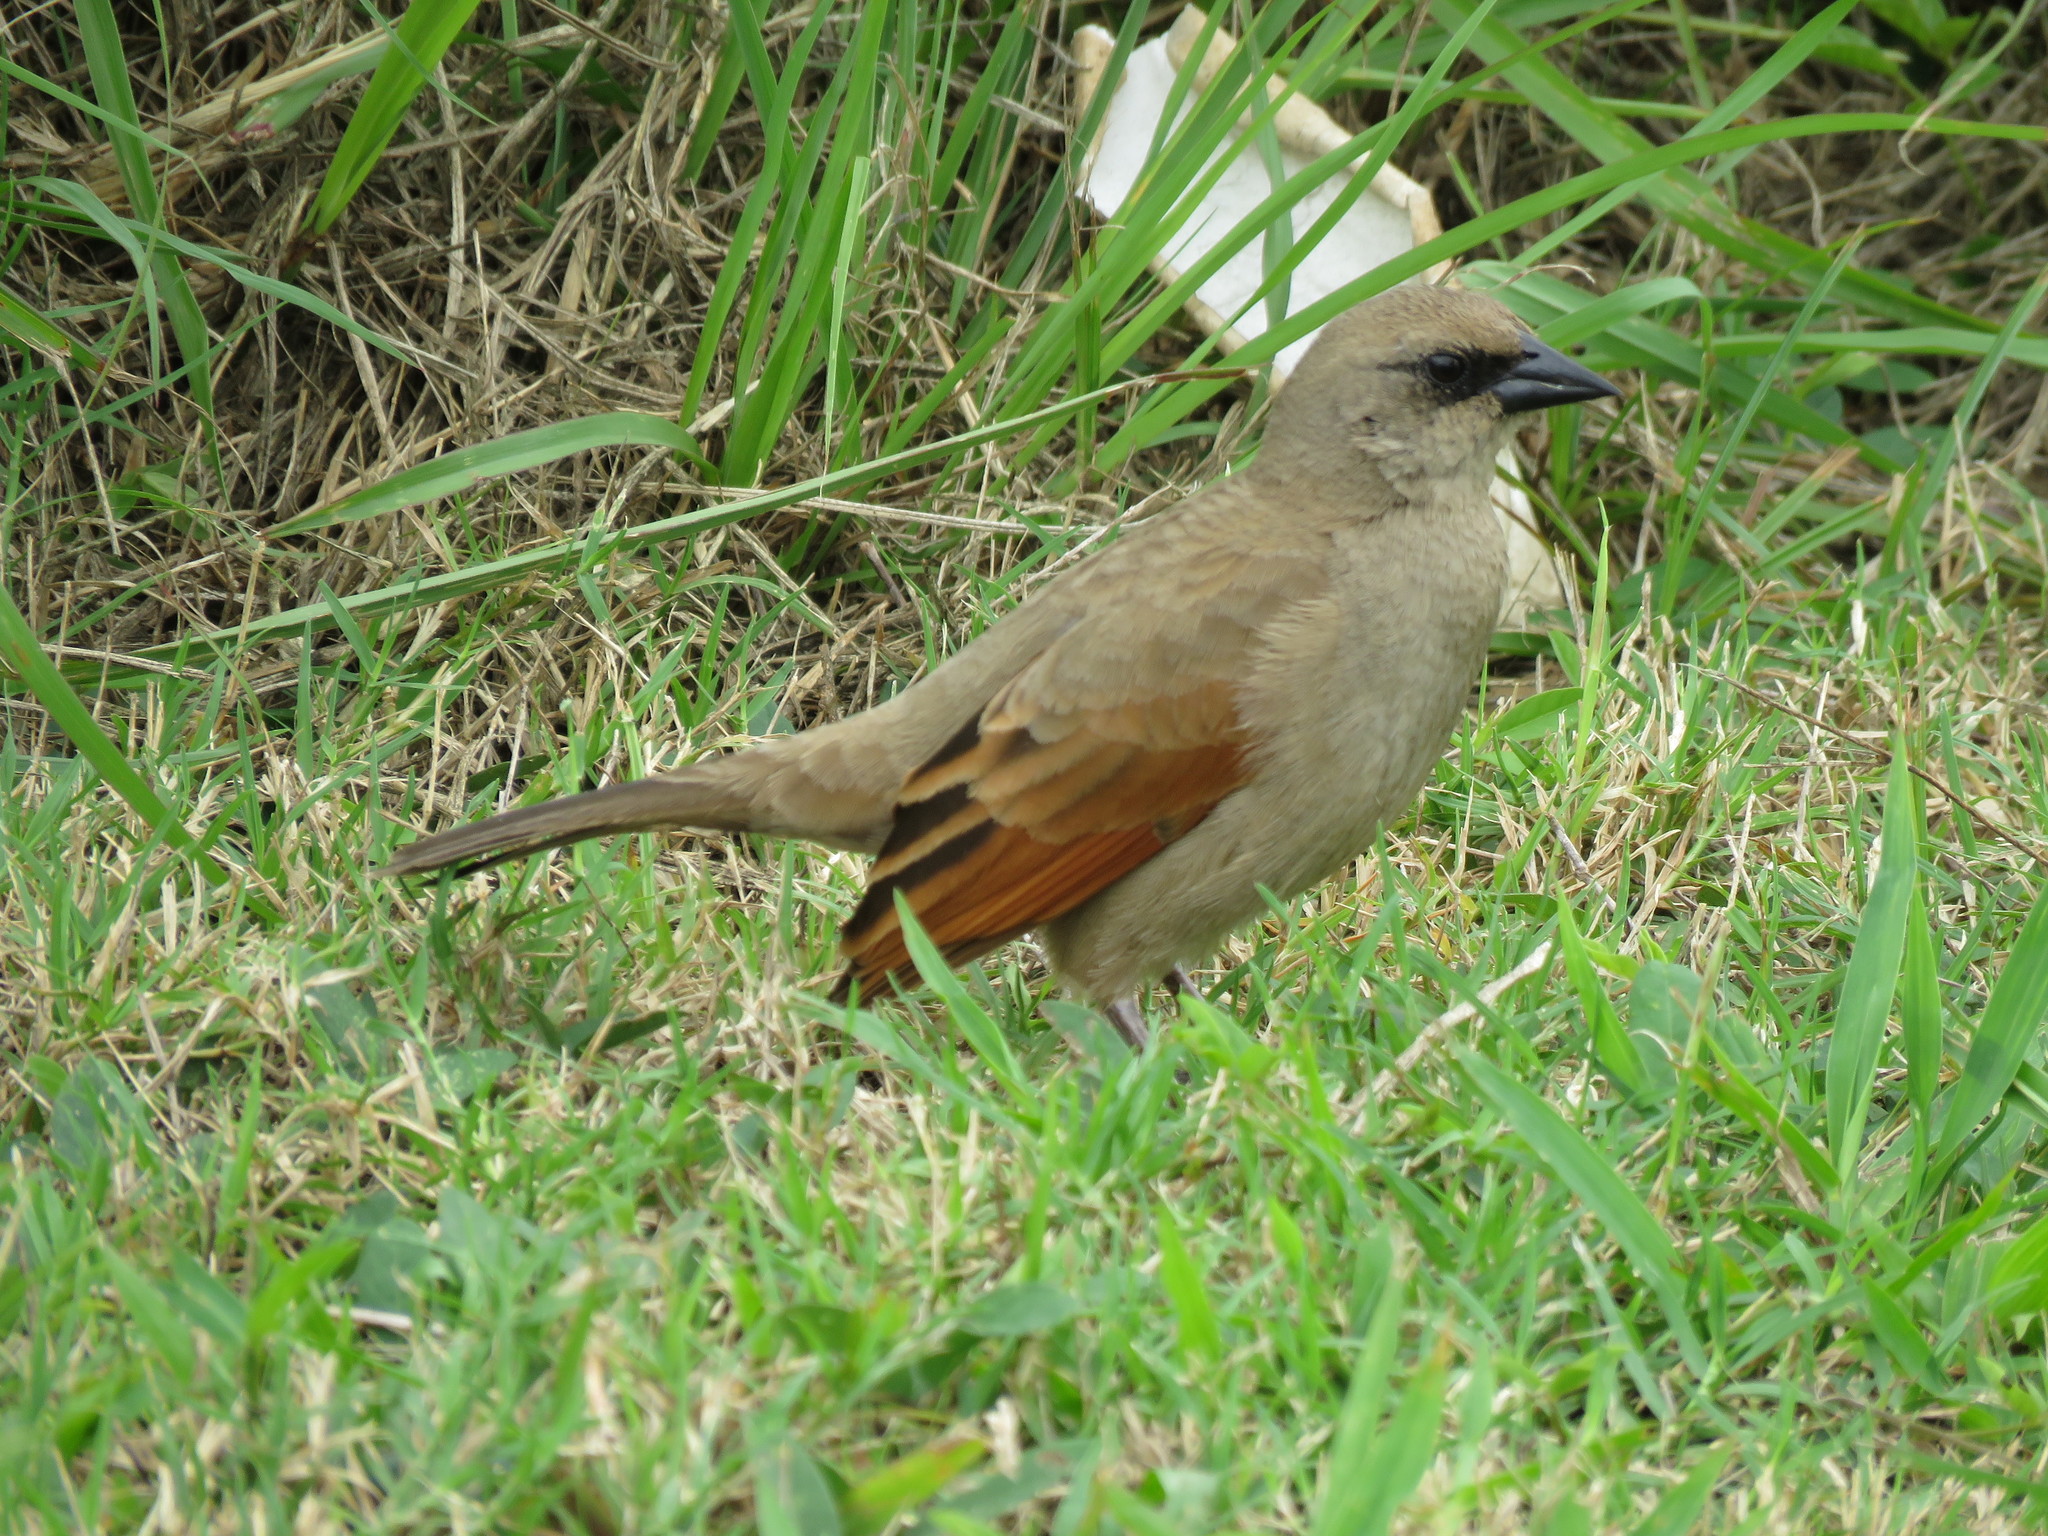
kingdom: Animalia
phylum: Chordata
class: Aves
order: Passeriformes
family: Icteridae
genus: Agelaioides
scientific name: Agelaioides badius
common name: Baywing
